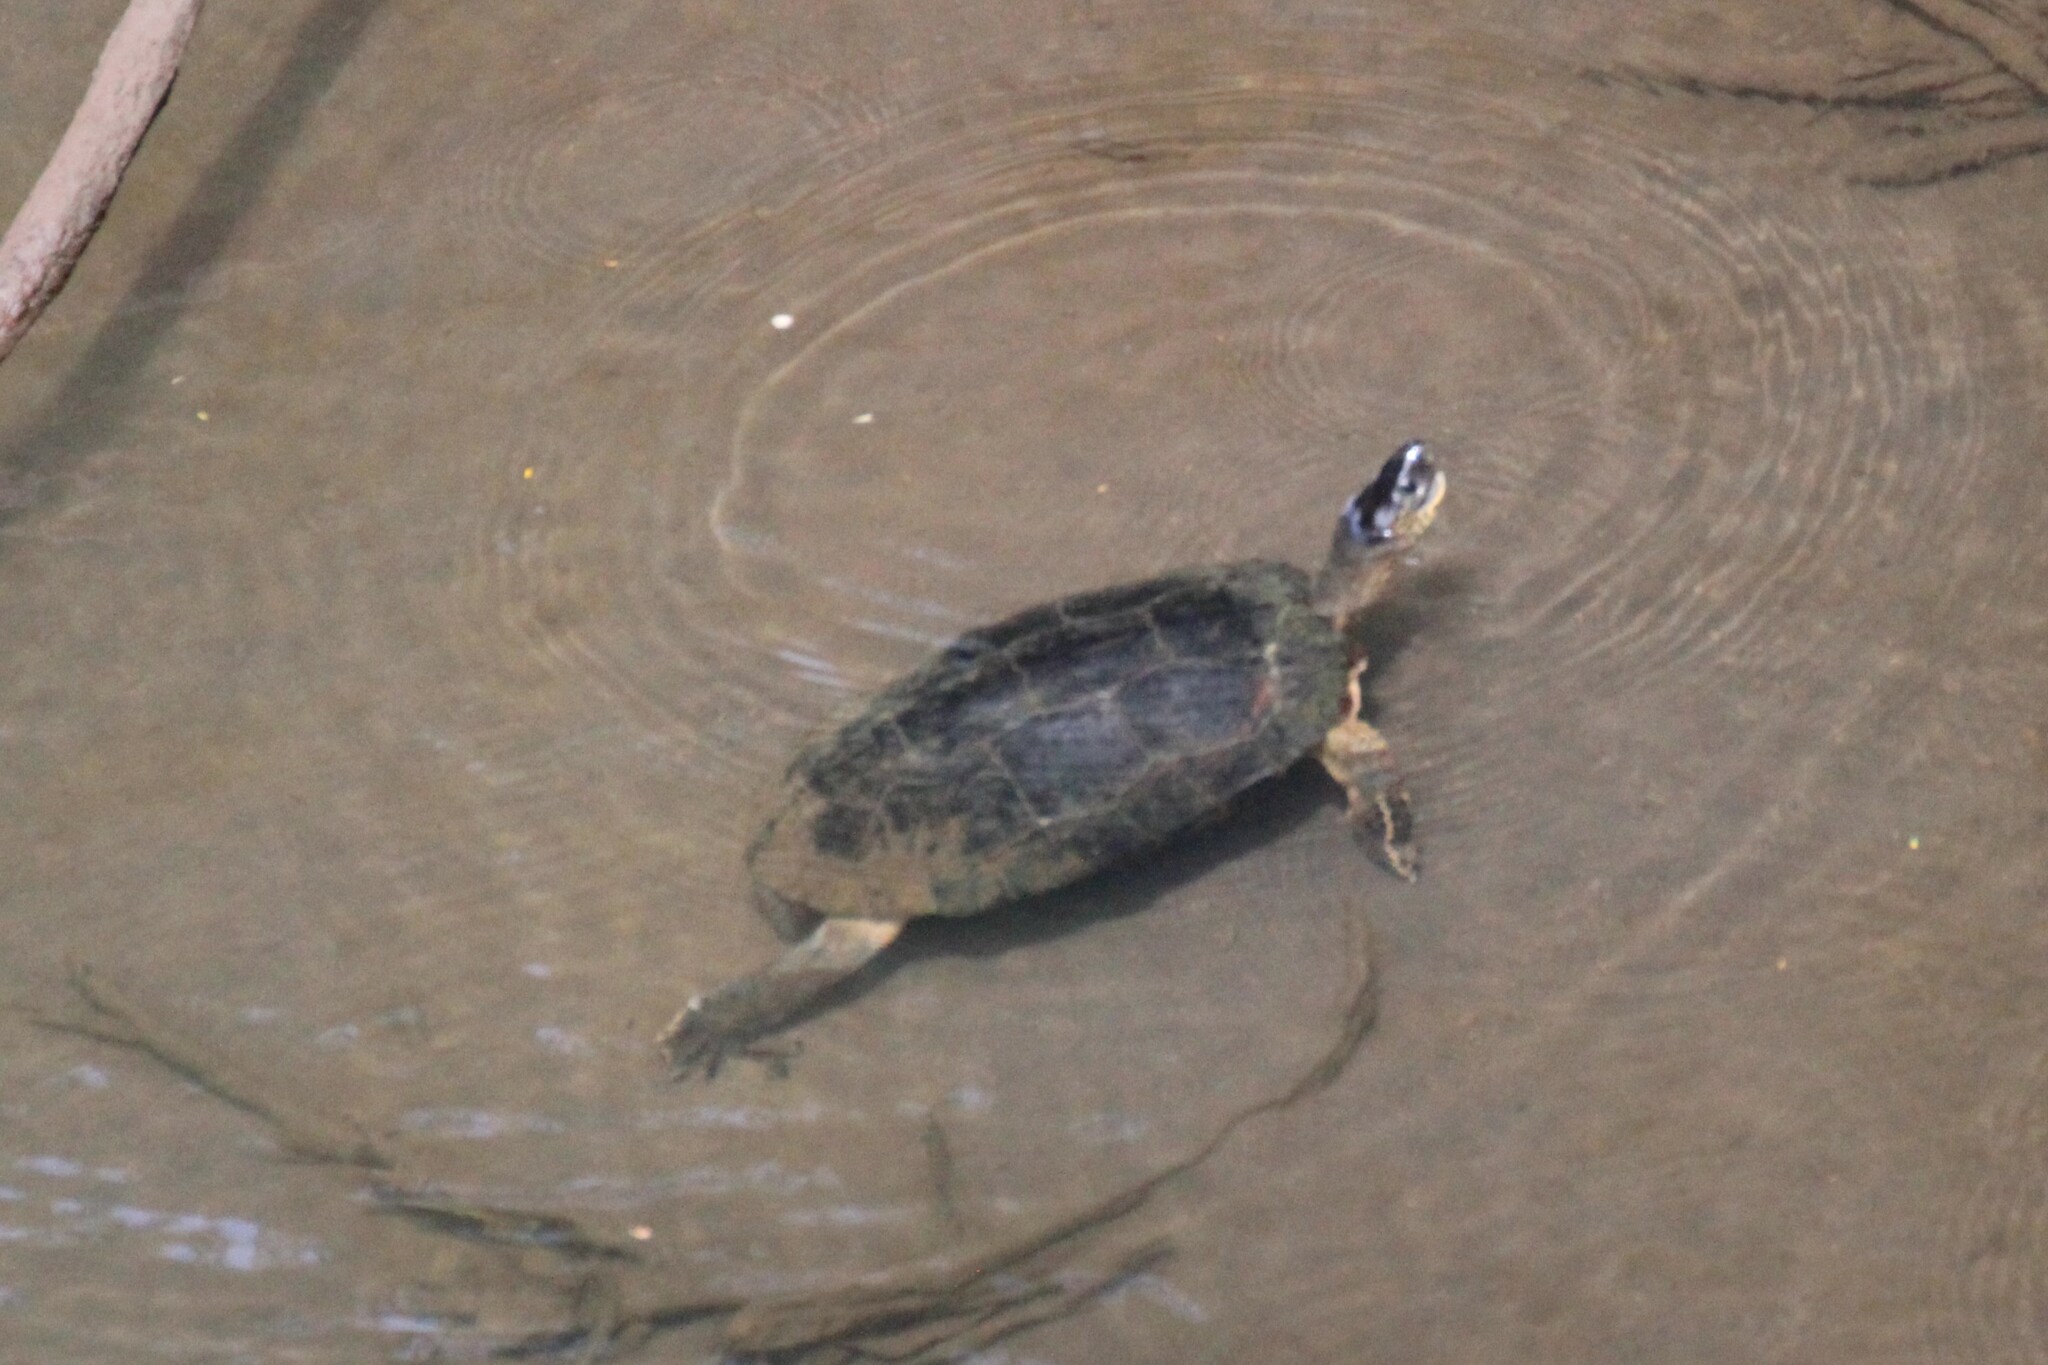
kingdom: Animalia
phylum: Chordata
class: Testudines
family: Geoemydidae
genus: Rhinoclemmys
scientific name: Rhinoclemmys funerea
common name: Black wood turtle
